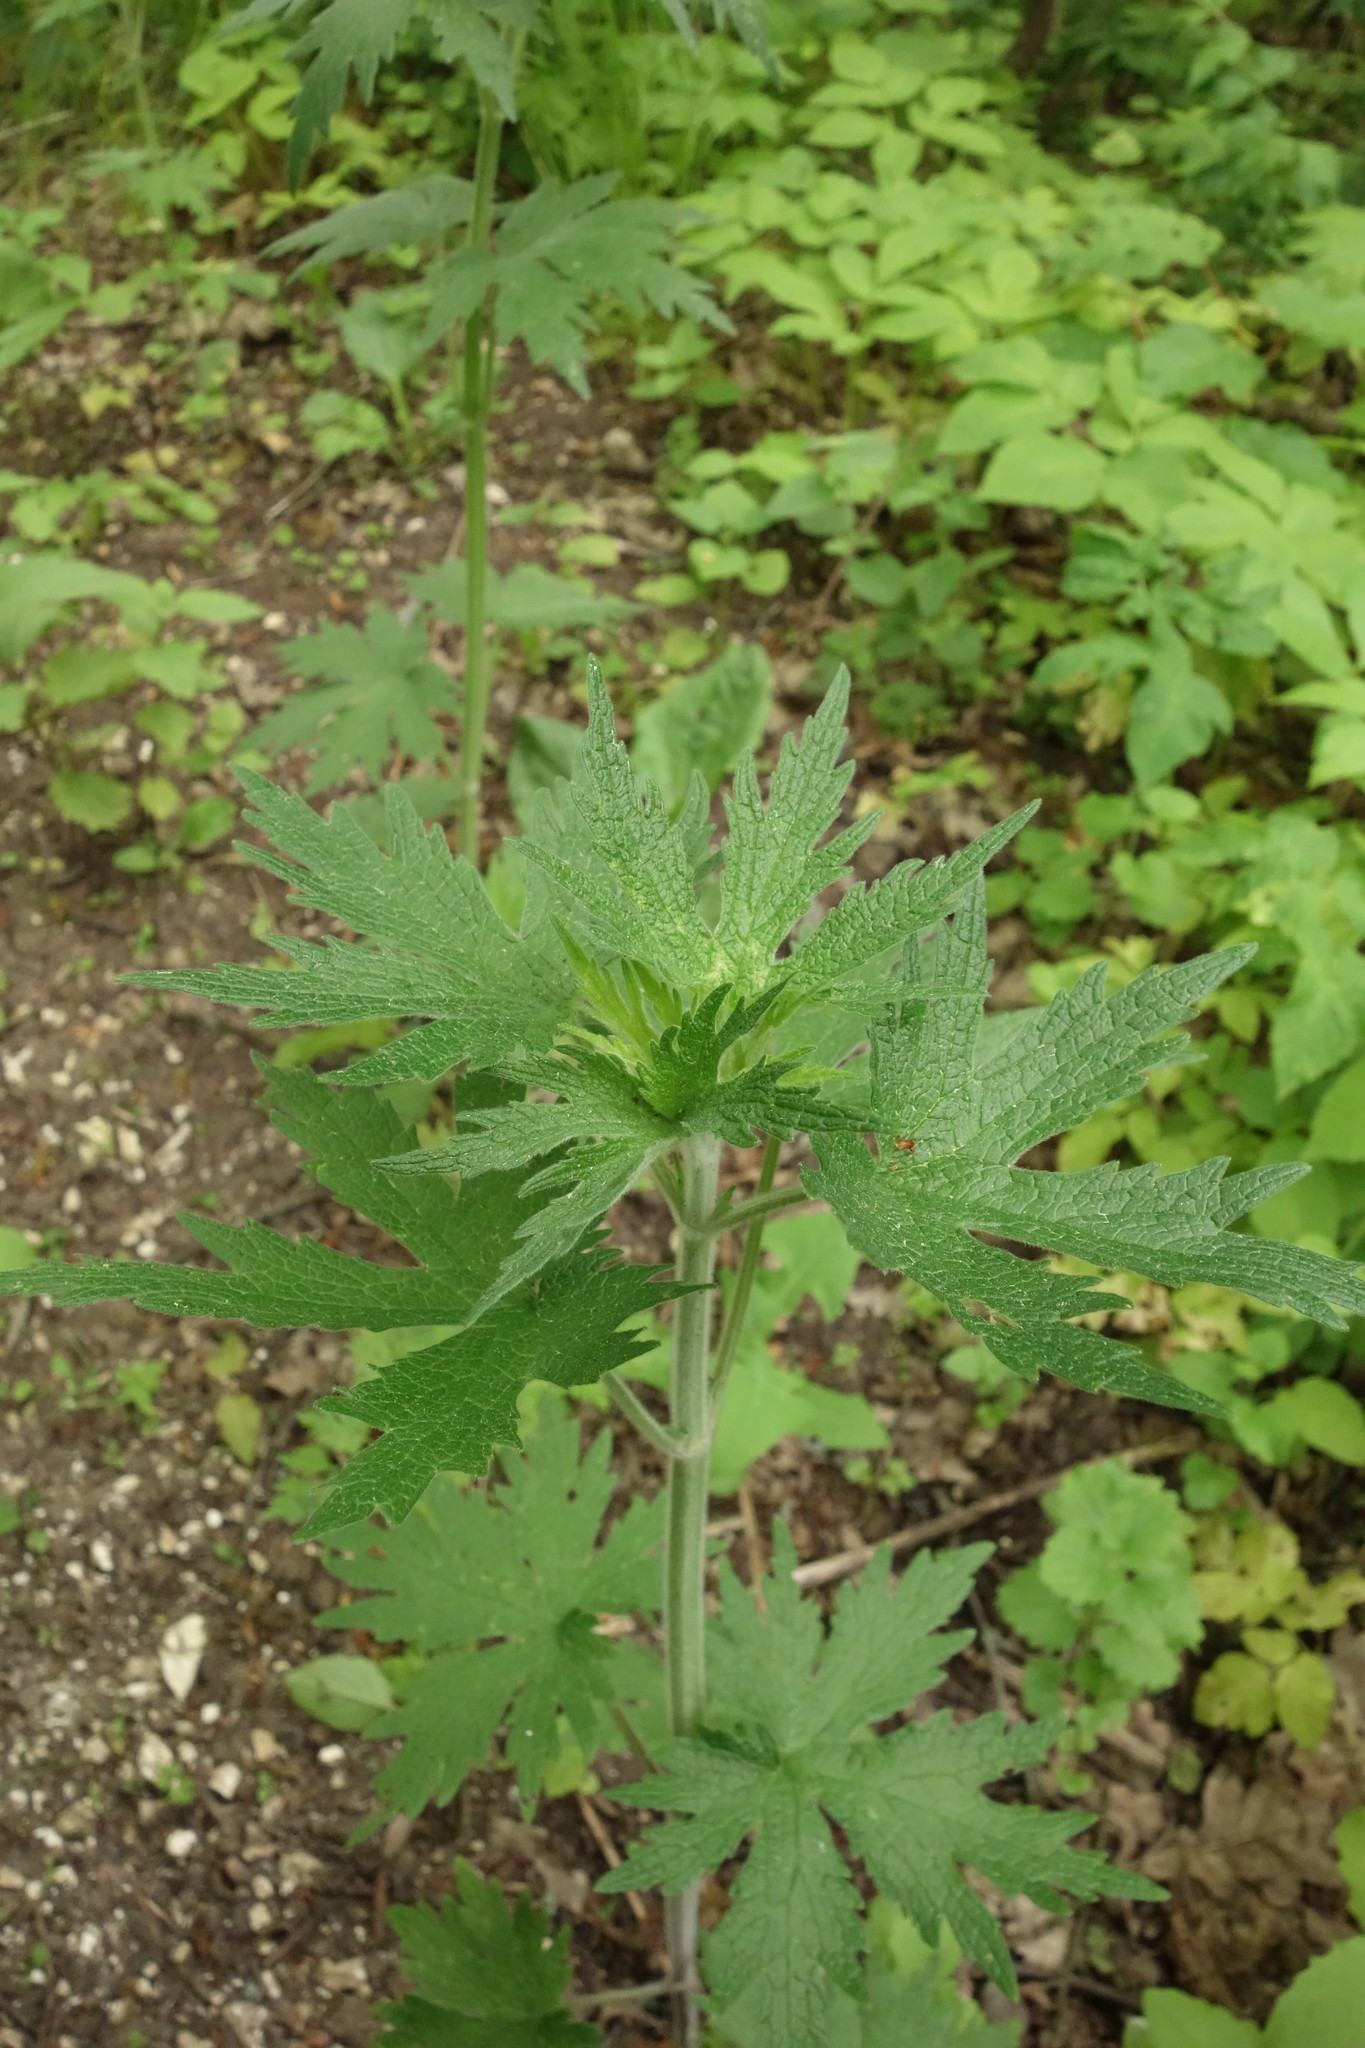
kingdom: Plantae
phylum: Tracheophyta
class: Magnoliopsida
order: Lamiales
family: Lamiaceae
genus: Leonurus
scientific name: Leonurus quinquelobatus
